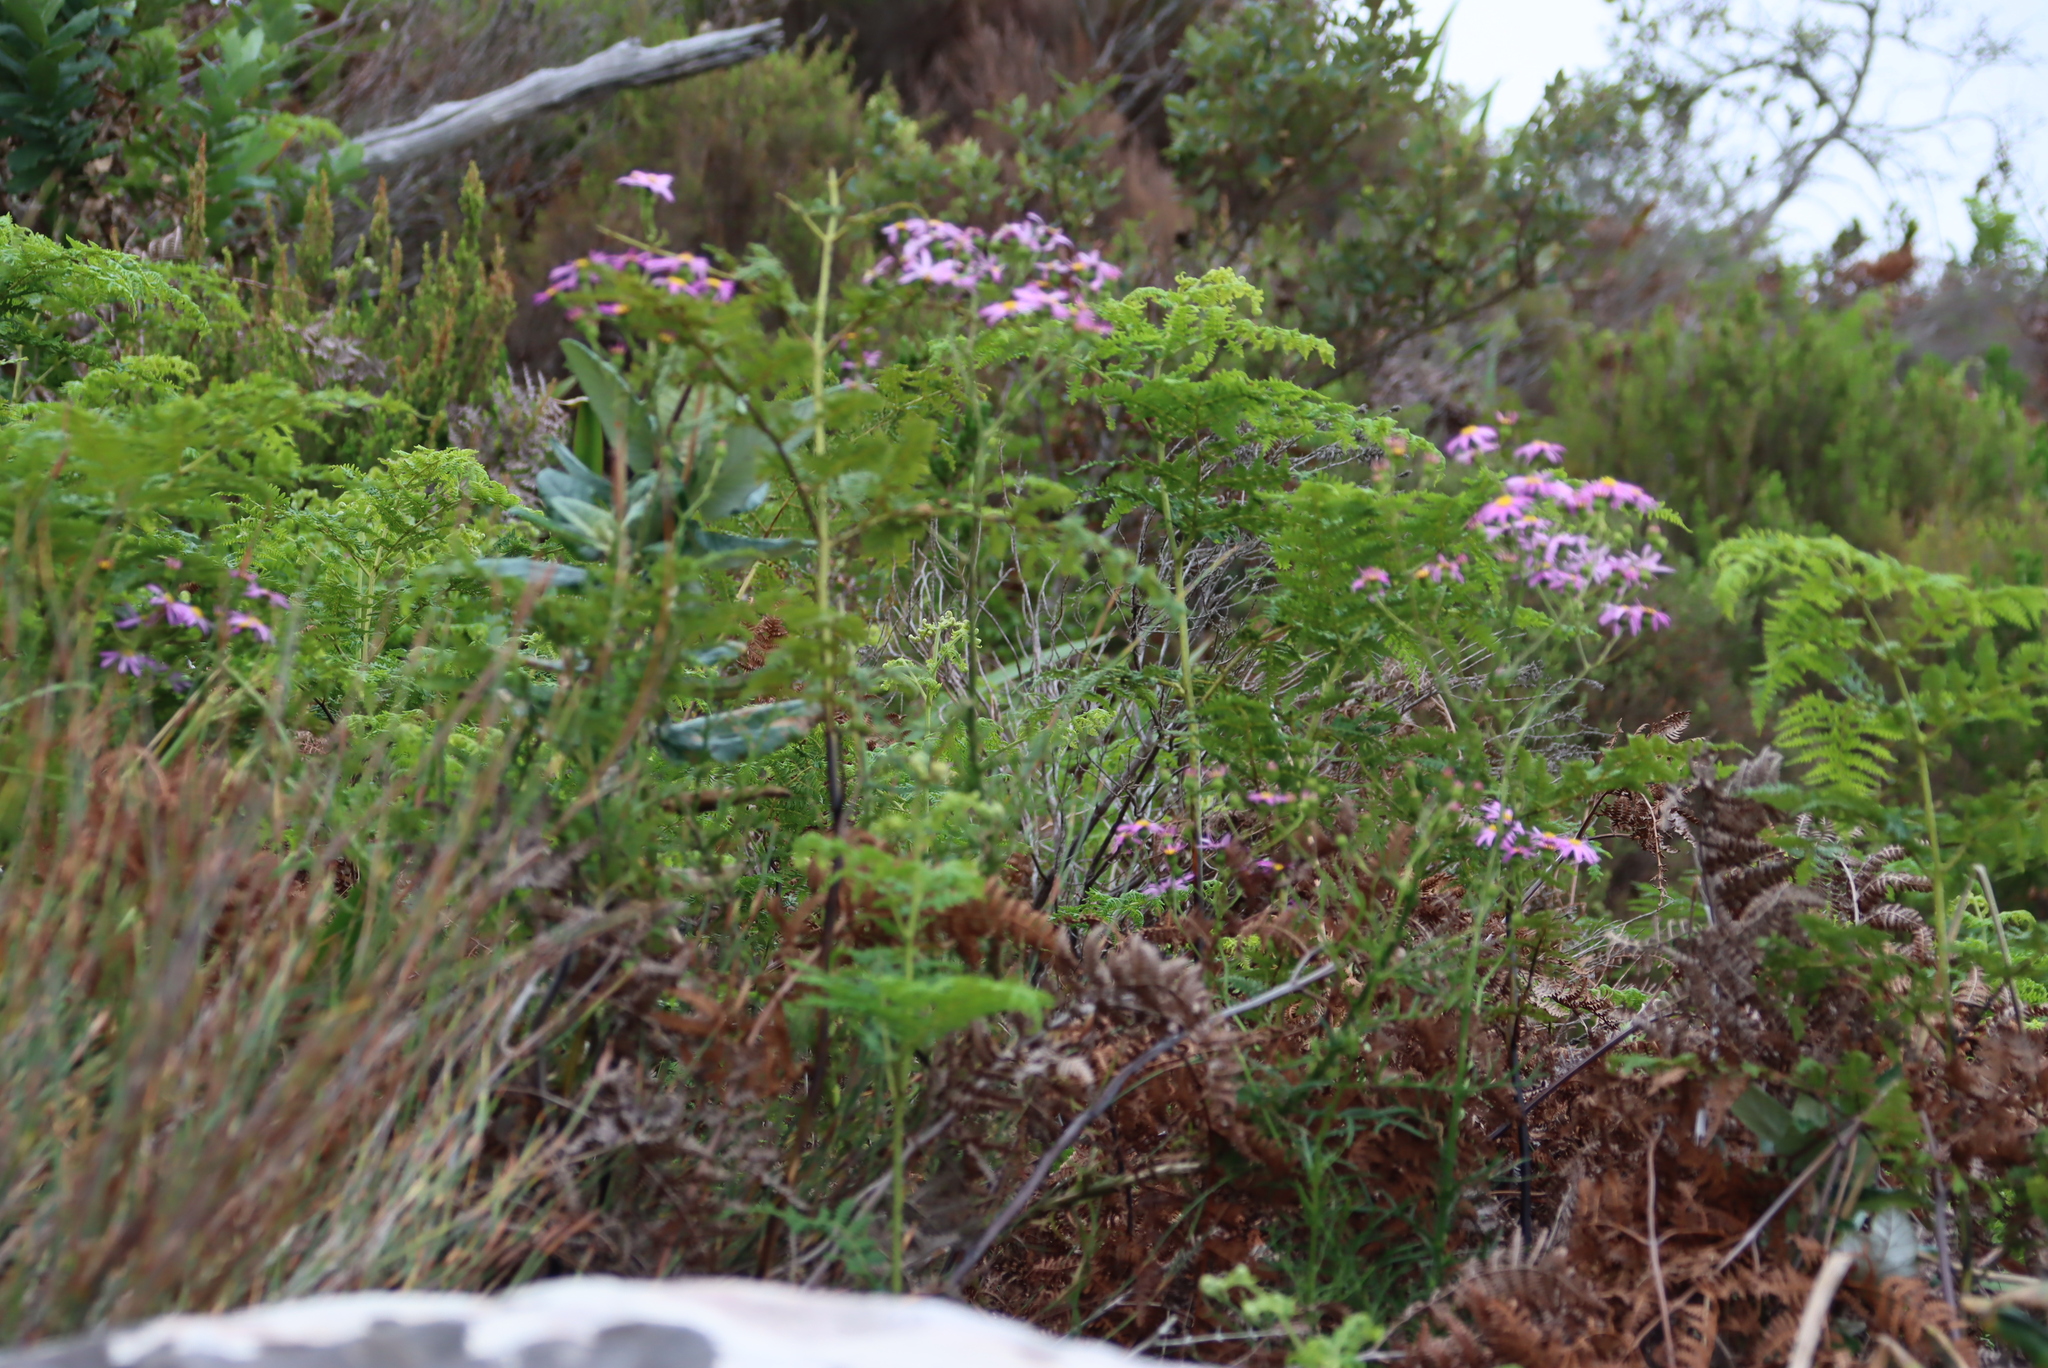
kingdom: Plantae
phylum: Tracheophyta
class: Polypodiopsida
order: Polypodiales
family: Dennstaedtiaceae
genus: Pteridium
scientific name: Pteridium aquilinum
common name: Bracken
